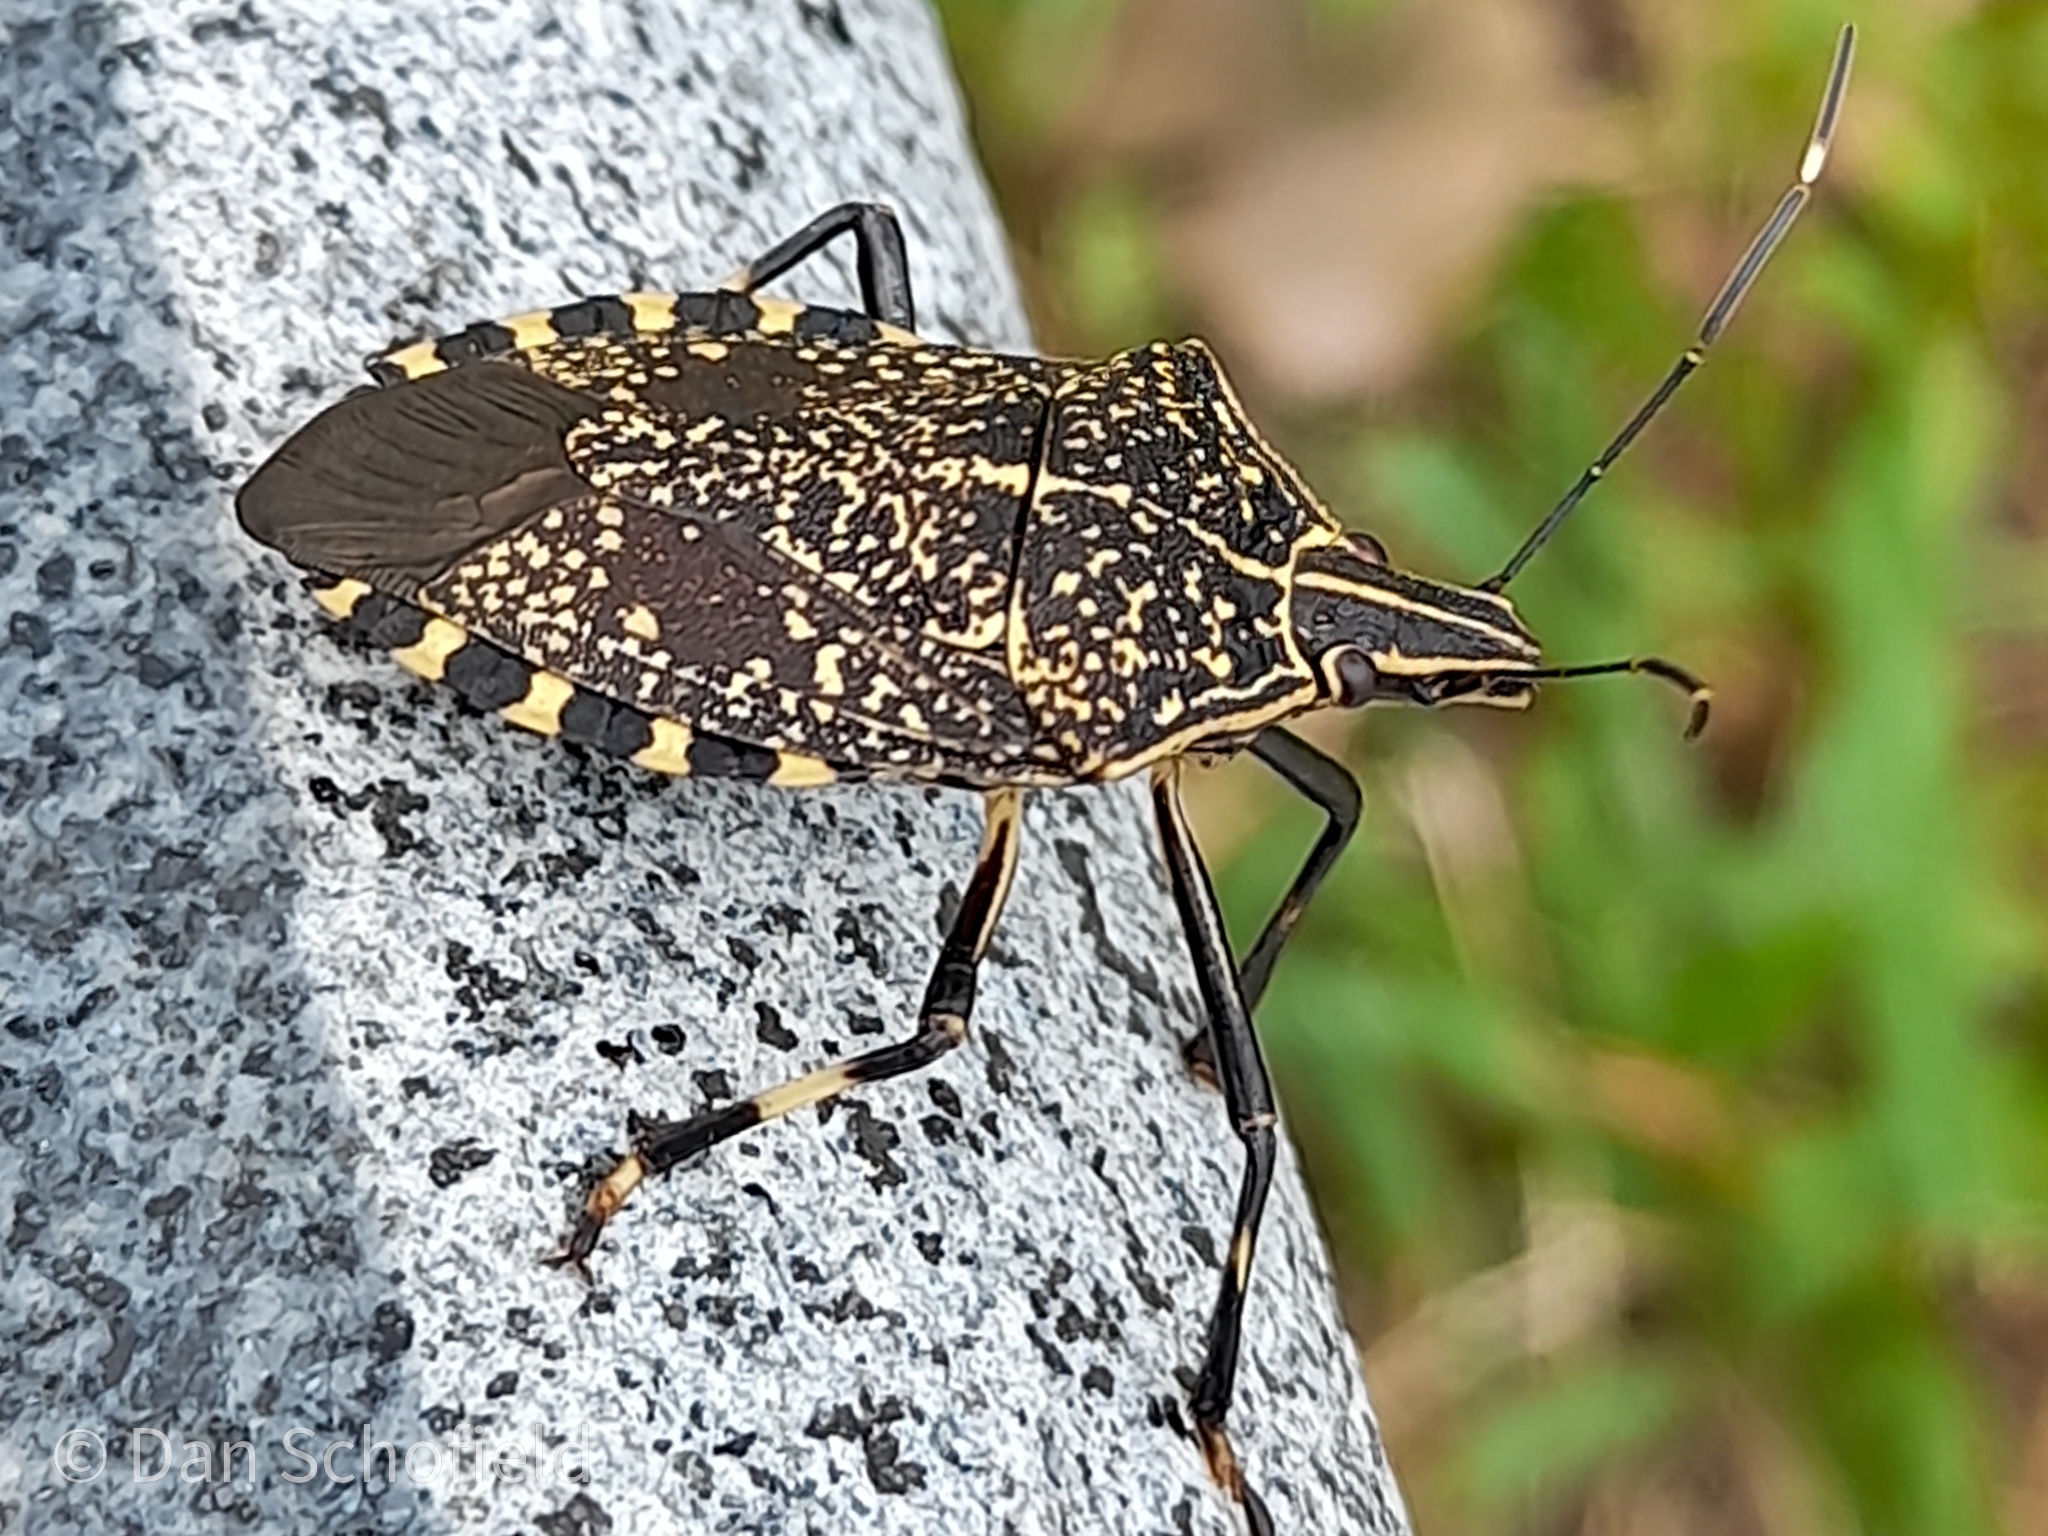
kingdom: Animalia
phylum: Arthropoda
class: Insecta
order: Hemiptera
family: Pentatomidae
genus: Erthesina
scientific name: Erthesina fullo
